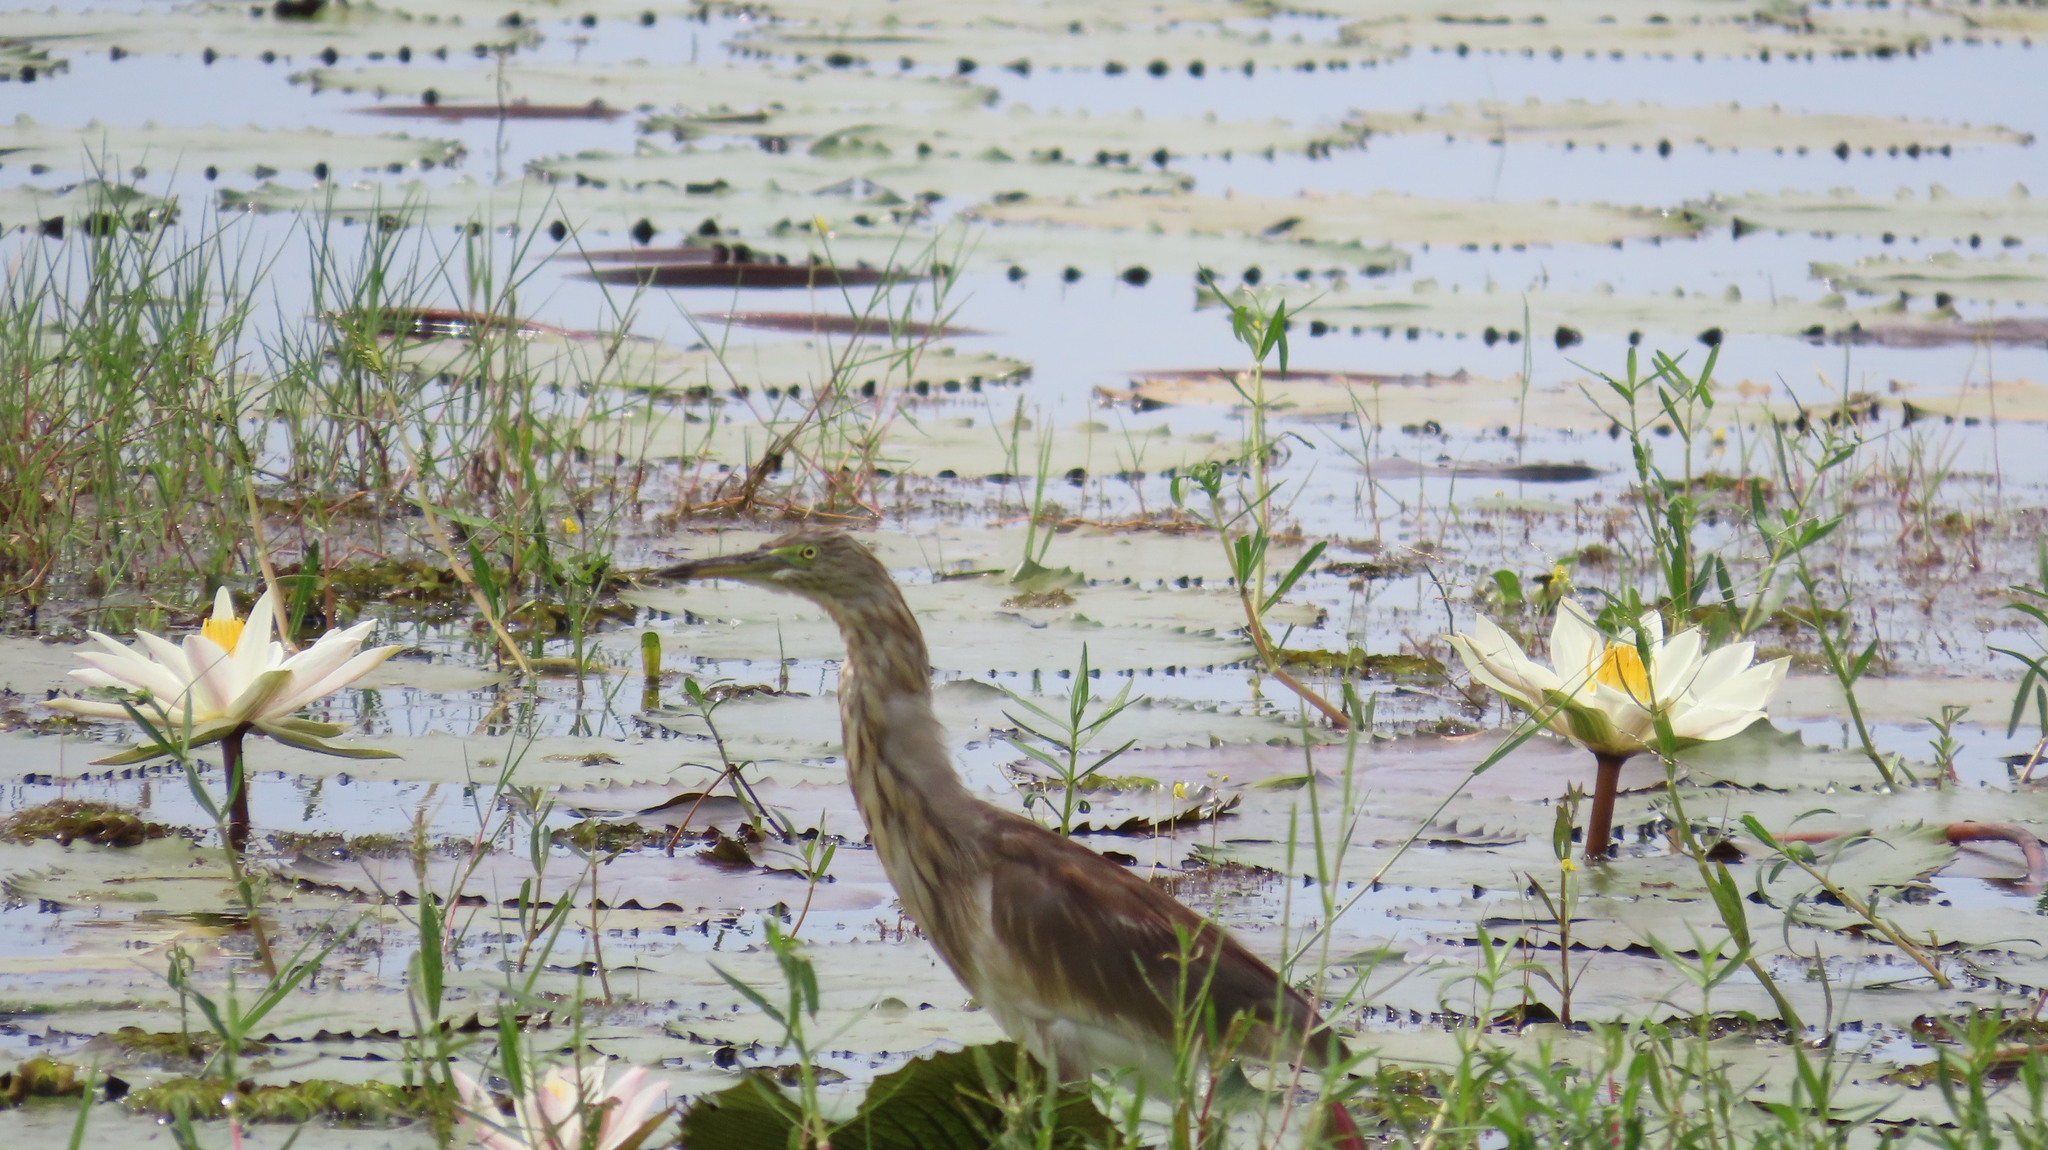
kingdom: Animalia
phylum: Chordata
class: Aves
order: Pelecaniformes
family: Ardeidae
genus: Ardeola
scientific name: Ardeola grayii
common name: Indian pond heron
